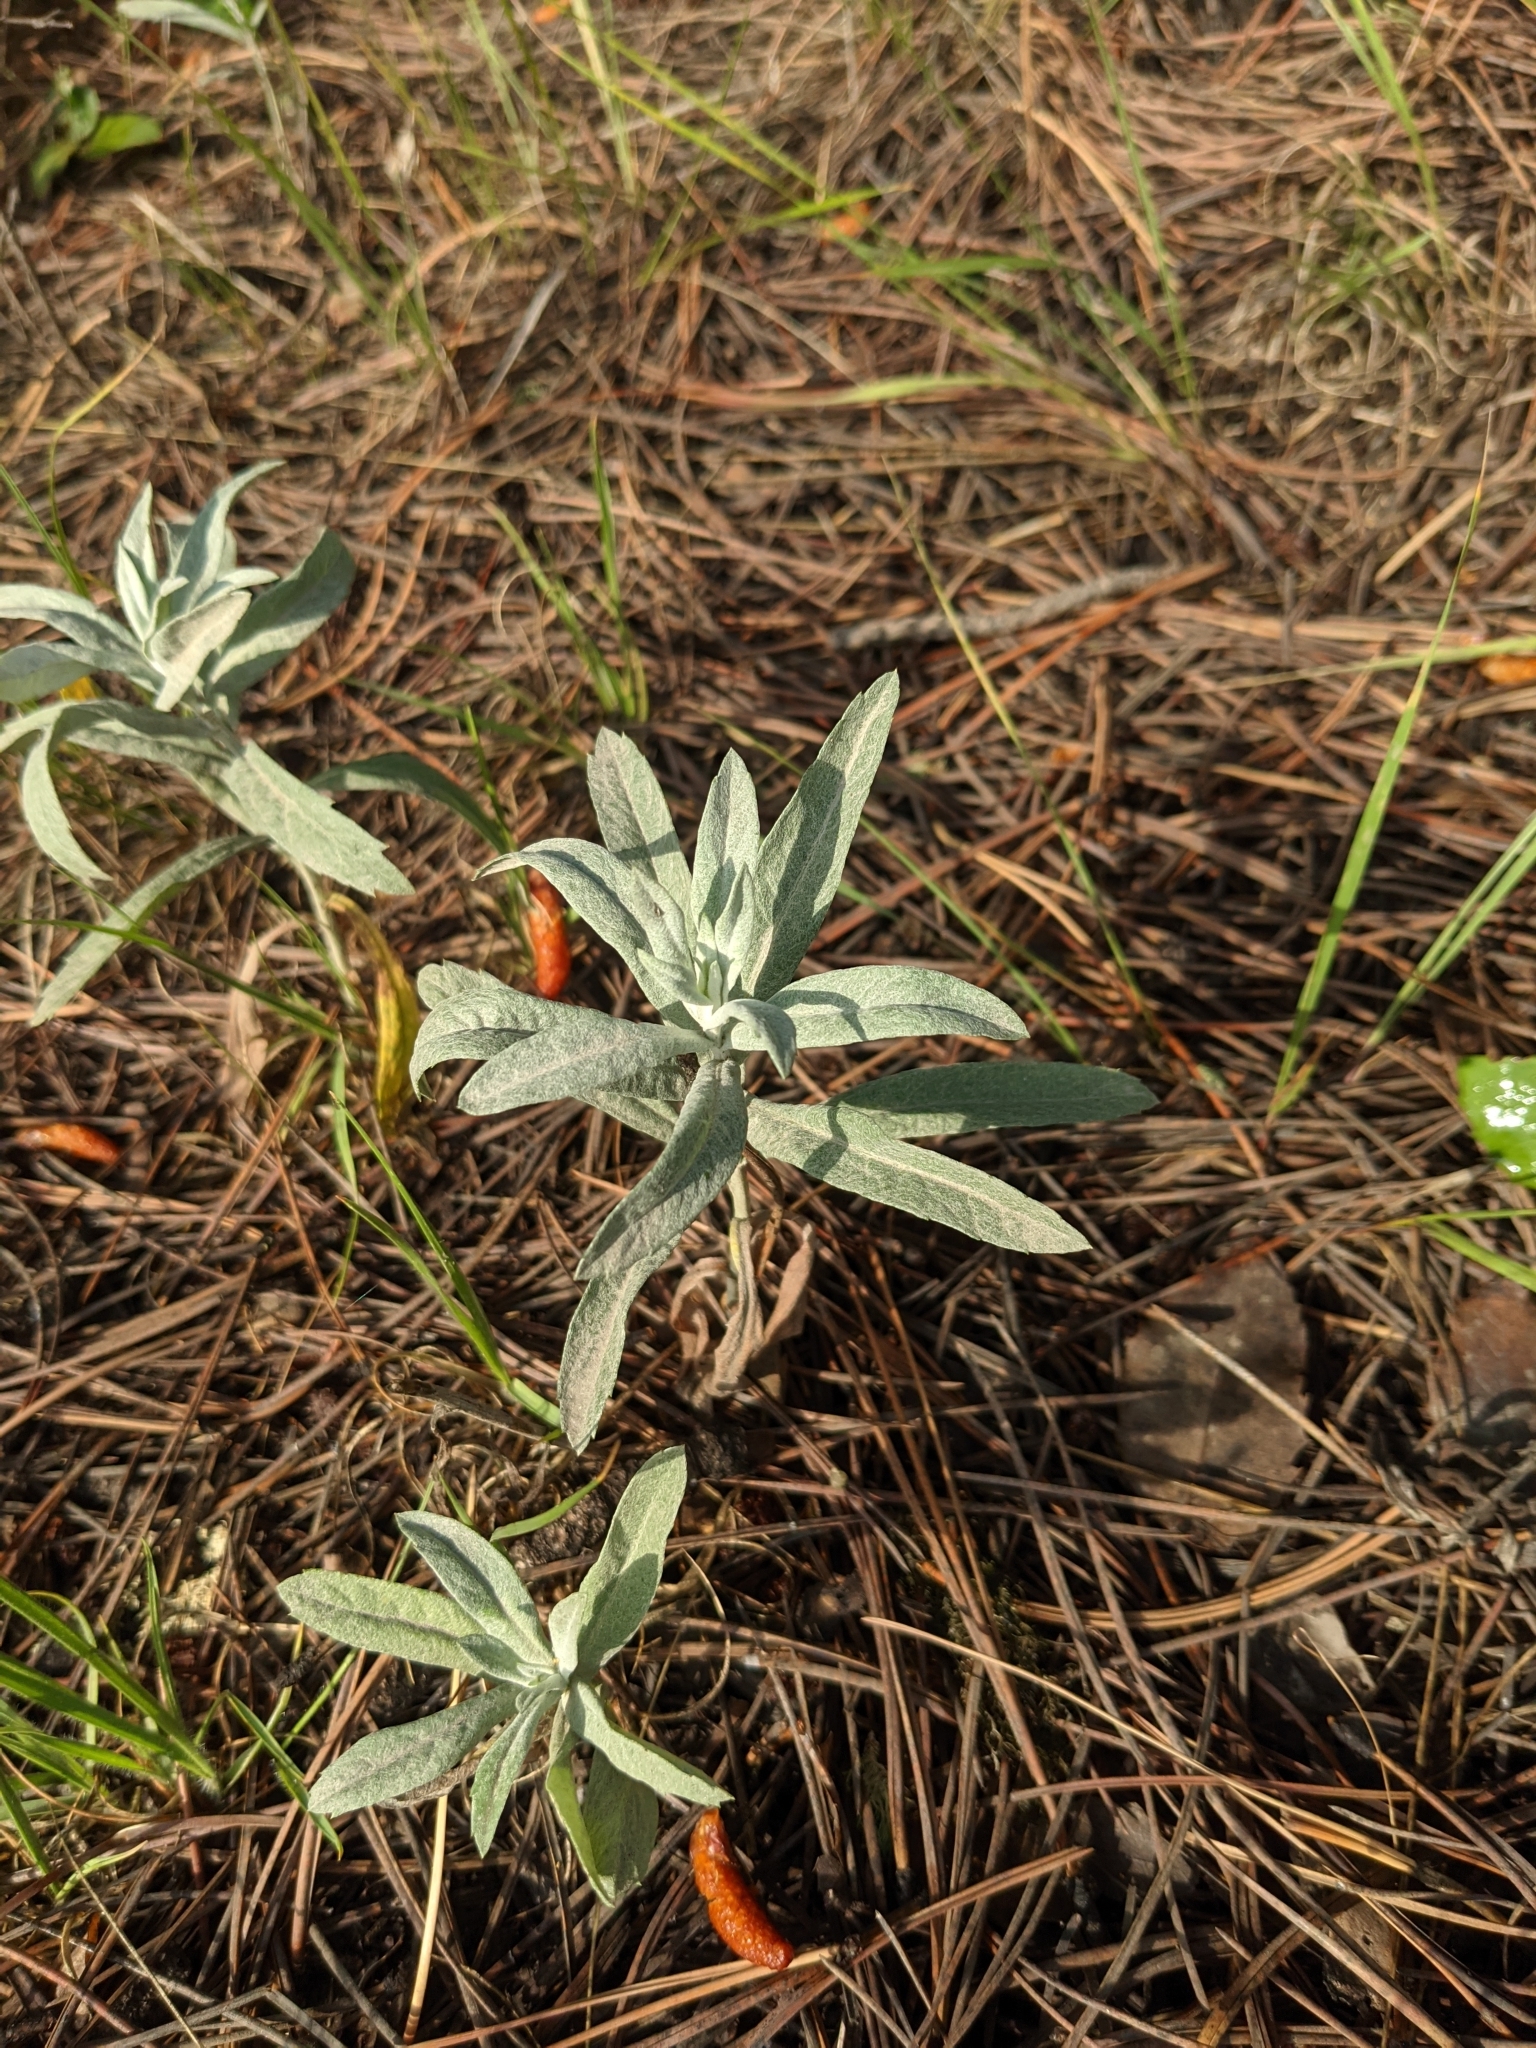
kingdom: Plantae
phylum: Tracheophyta
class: Magnoliopsida
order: Asterales
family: Asteraceae
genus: Artemisia
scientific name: Artemisia ludoviciana
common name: Western mugwort
